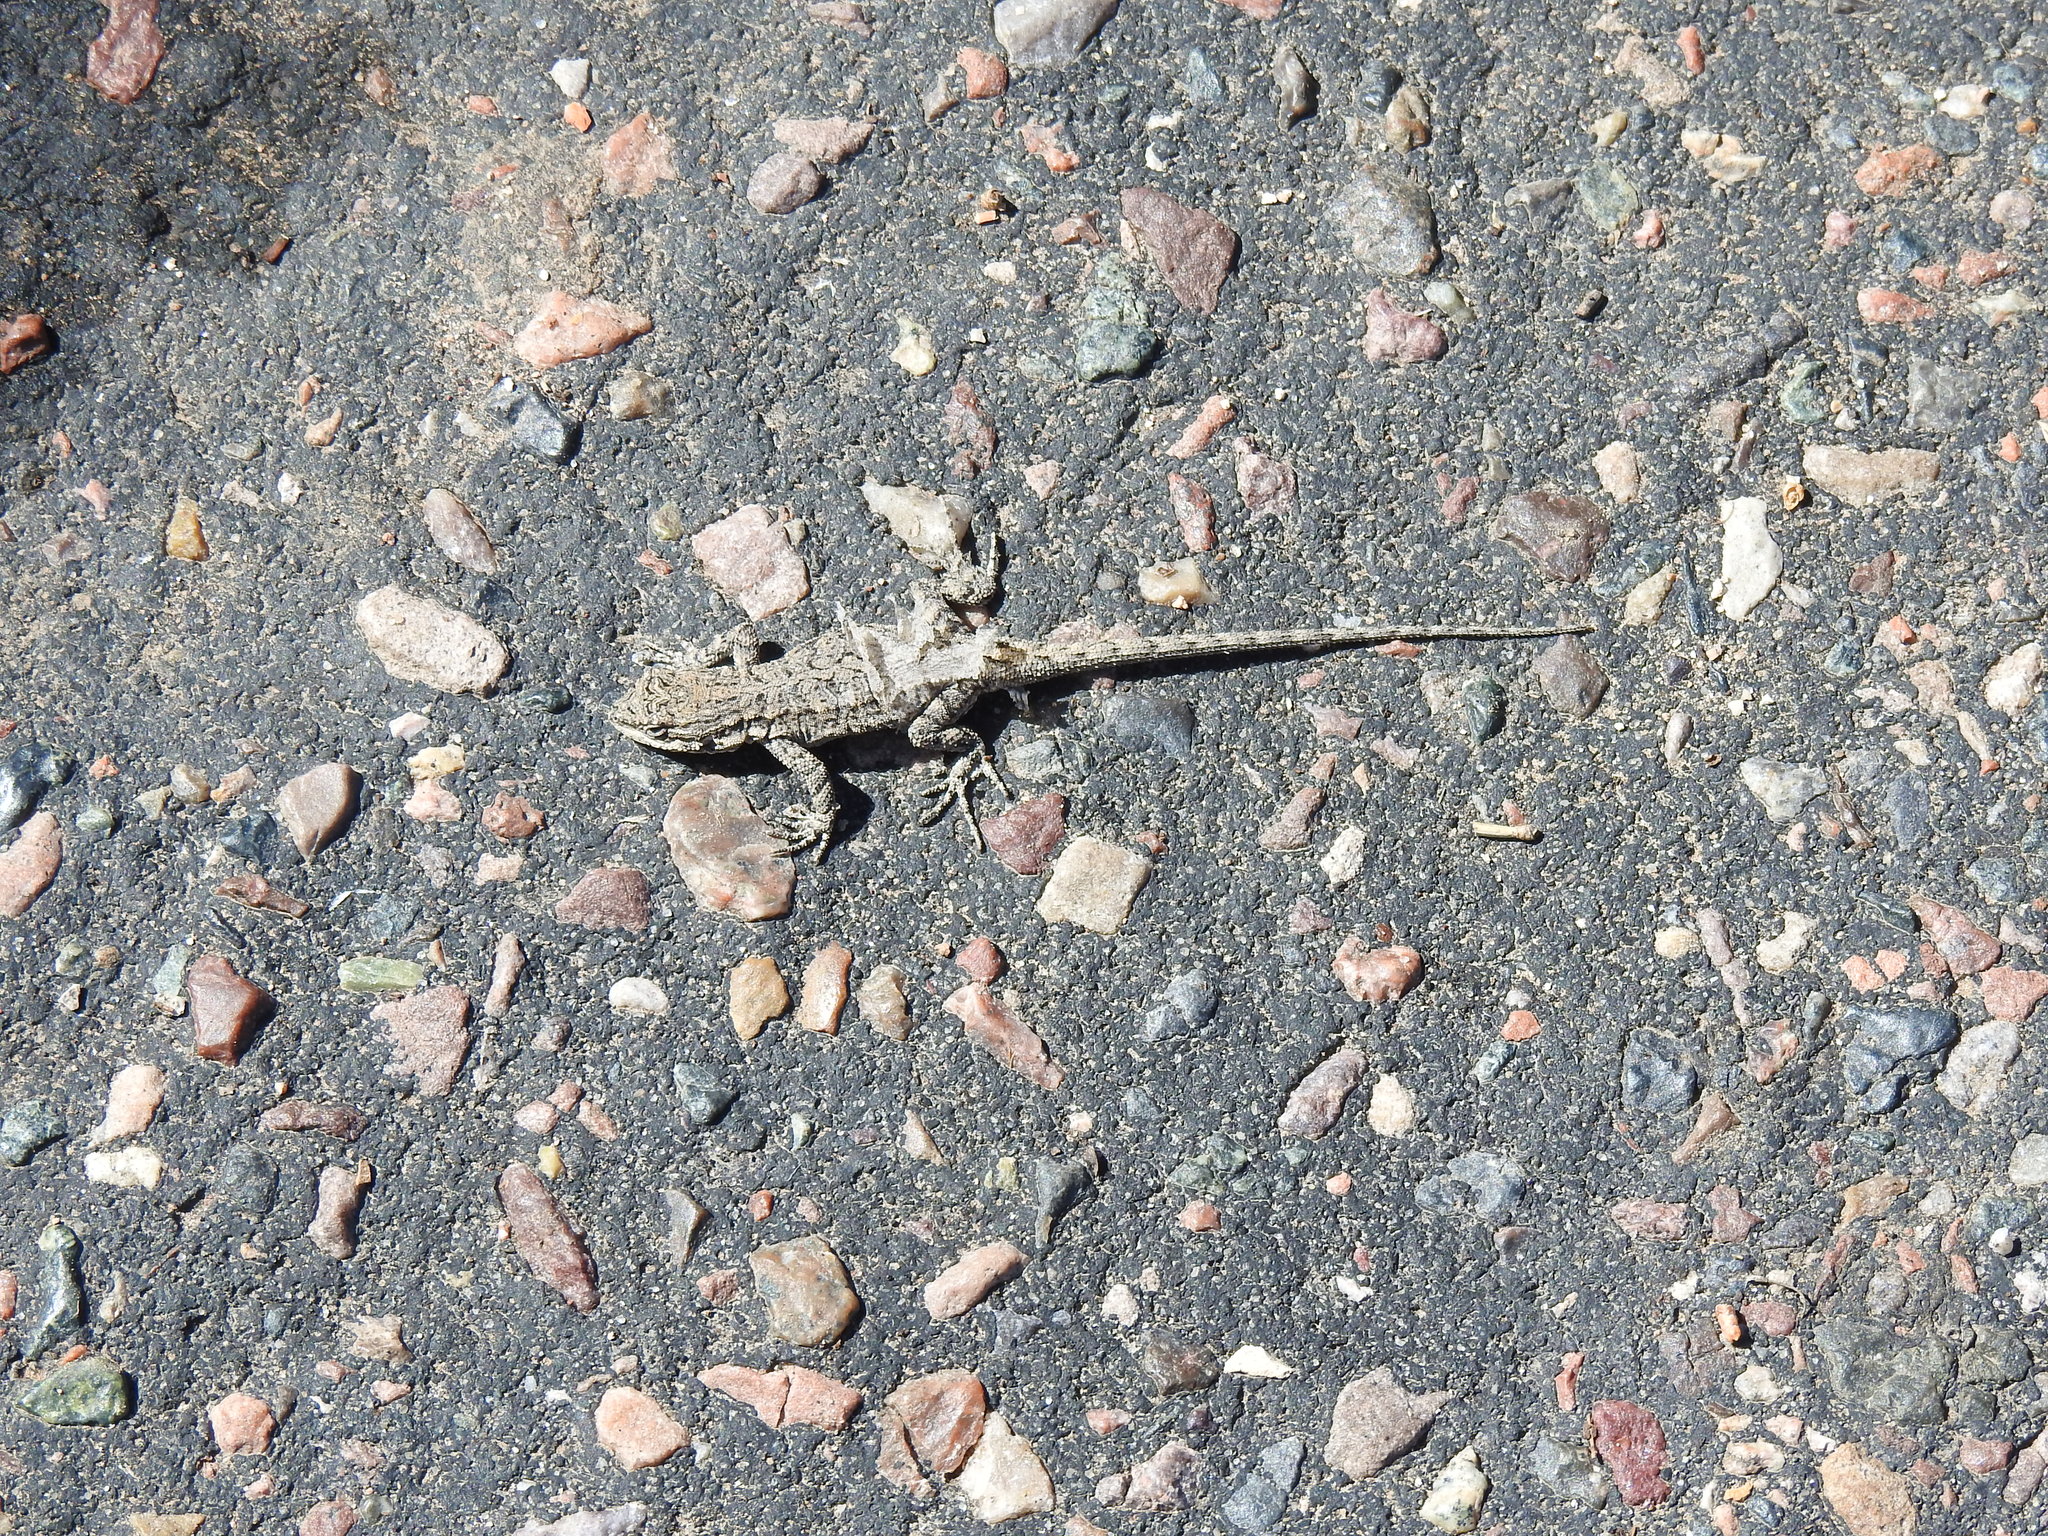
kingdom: Animalia
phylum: Chordata
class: Squamata
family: Phrynosomatidae
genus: Urosaurus
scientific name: Urosaurus ornatus
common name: Ornate tree lizard
